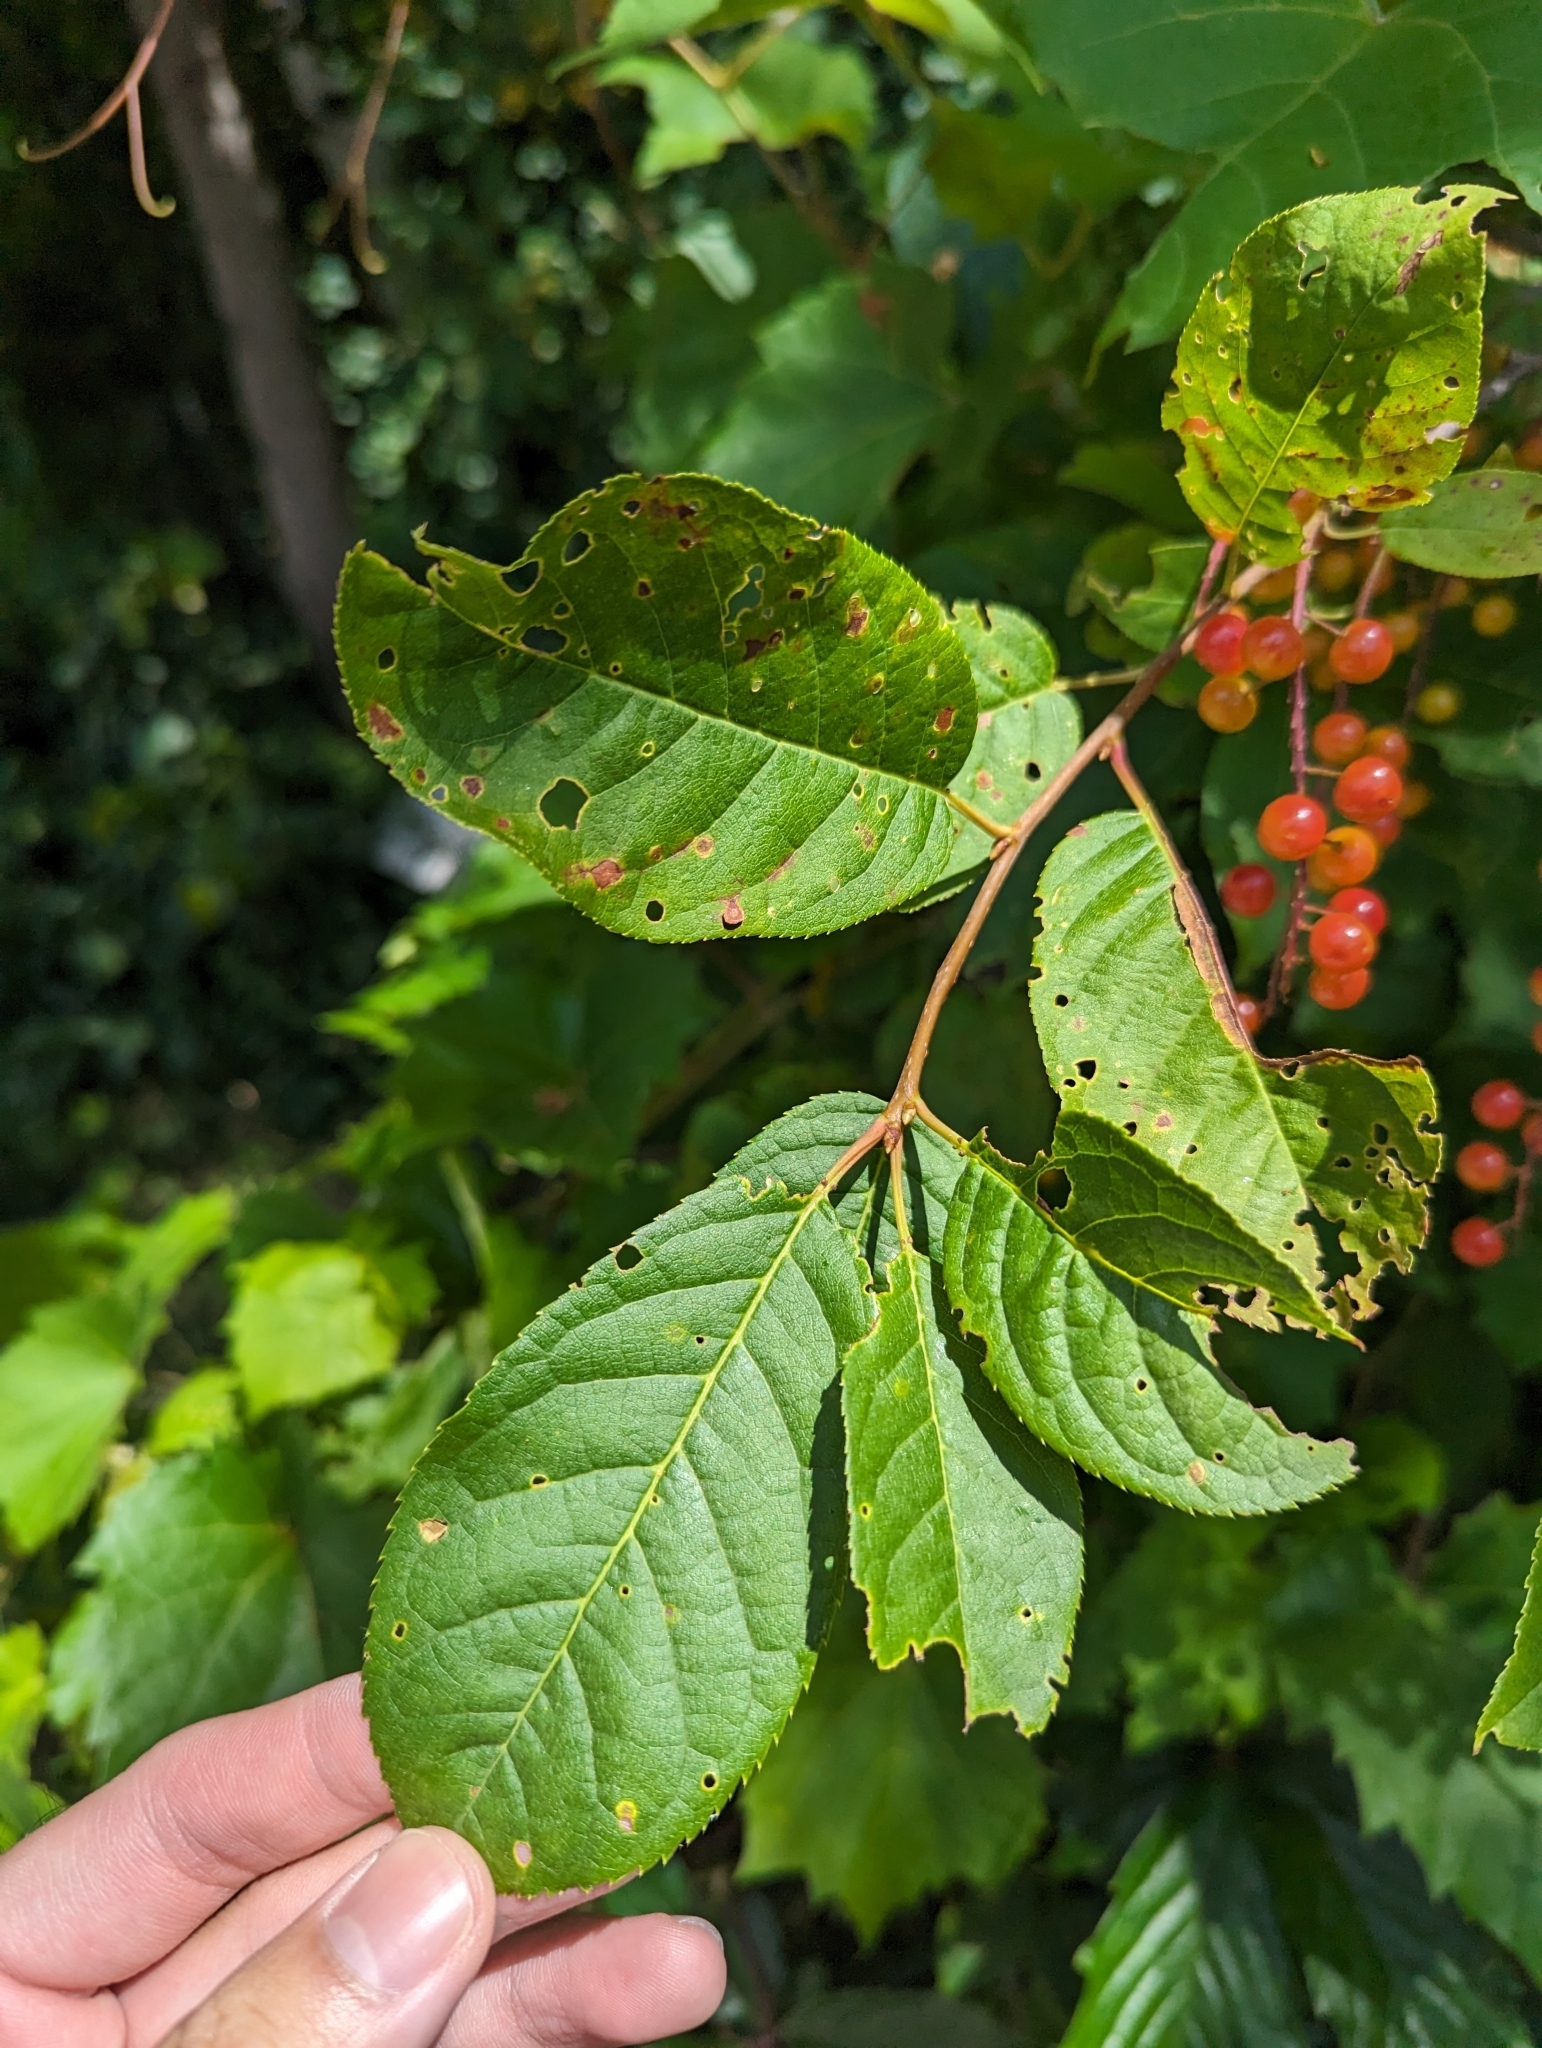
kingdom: Plantae
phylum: Tracheophyta
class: Magnoliopsida
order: Rosales
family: Rosaceae
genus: Prunus
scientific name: Prunus virginiana
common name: Chokecherry
